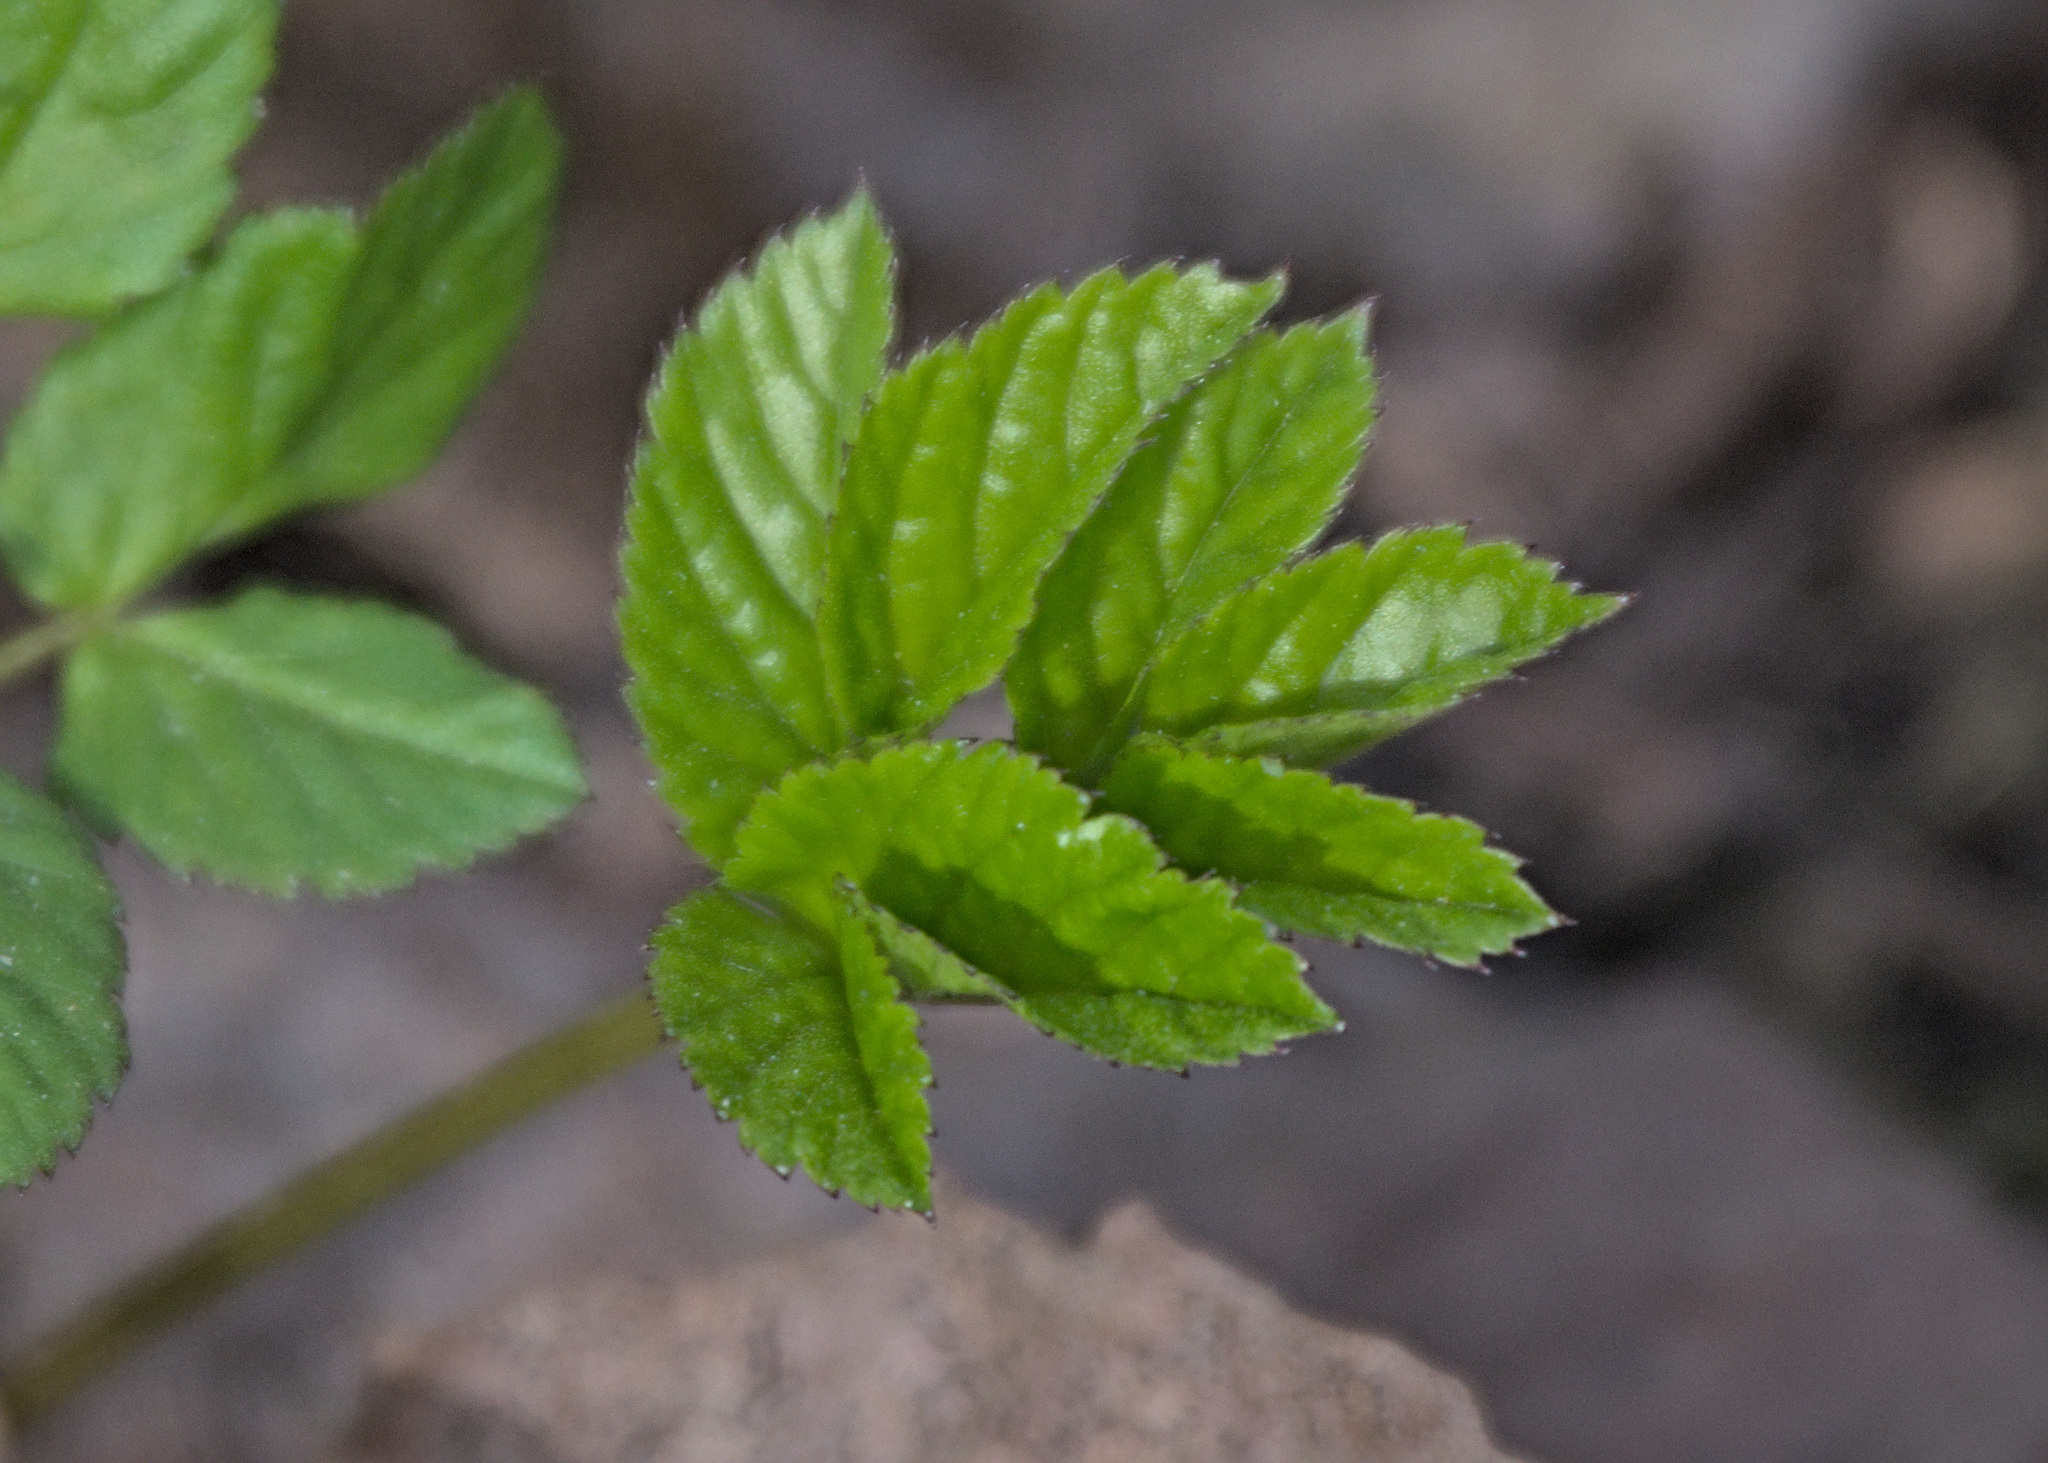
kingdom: Plantae
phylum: Tracheophyta
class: Magnoliopsida
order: Apiales
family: Apiaceae
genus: Aegopodium
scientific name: Aegopodium podagraria
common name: Ground-elder
